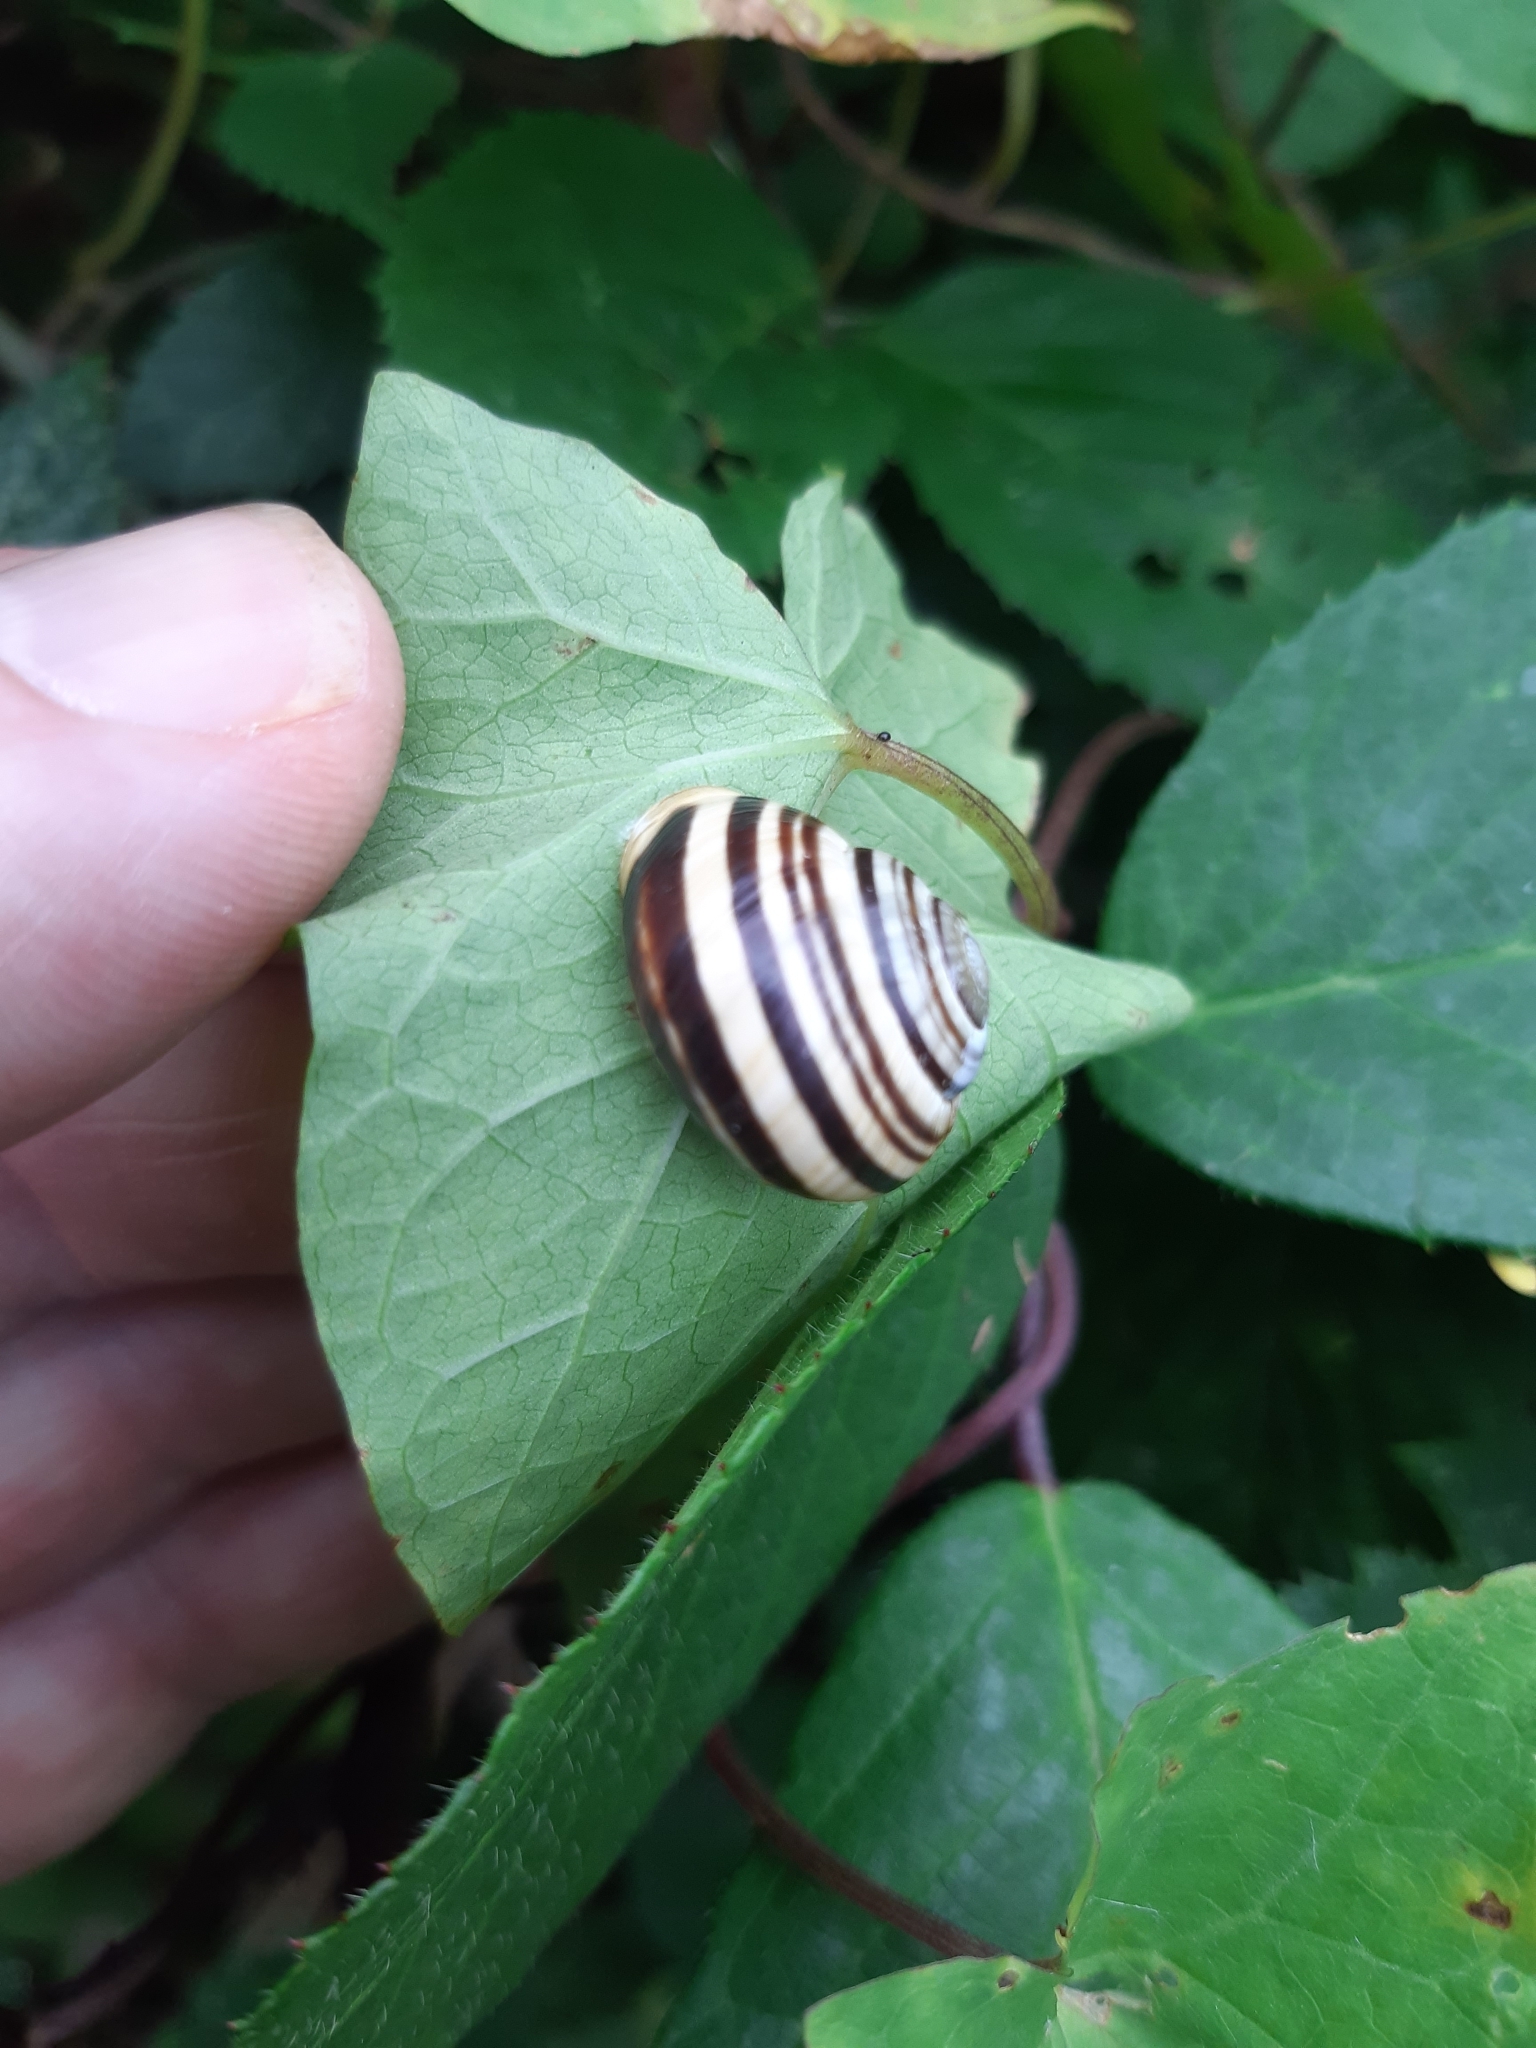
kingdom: Animalia
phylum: Mollusca
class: Gastropoda
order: Stylommatophora
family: Helicidae
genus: Cepaea
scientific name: Cepaea hortensis
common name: White-lip gardensnail
